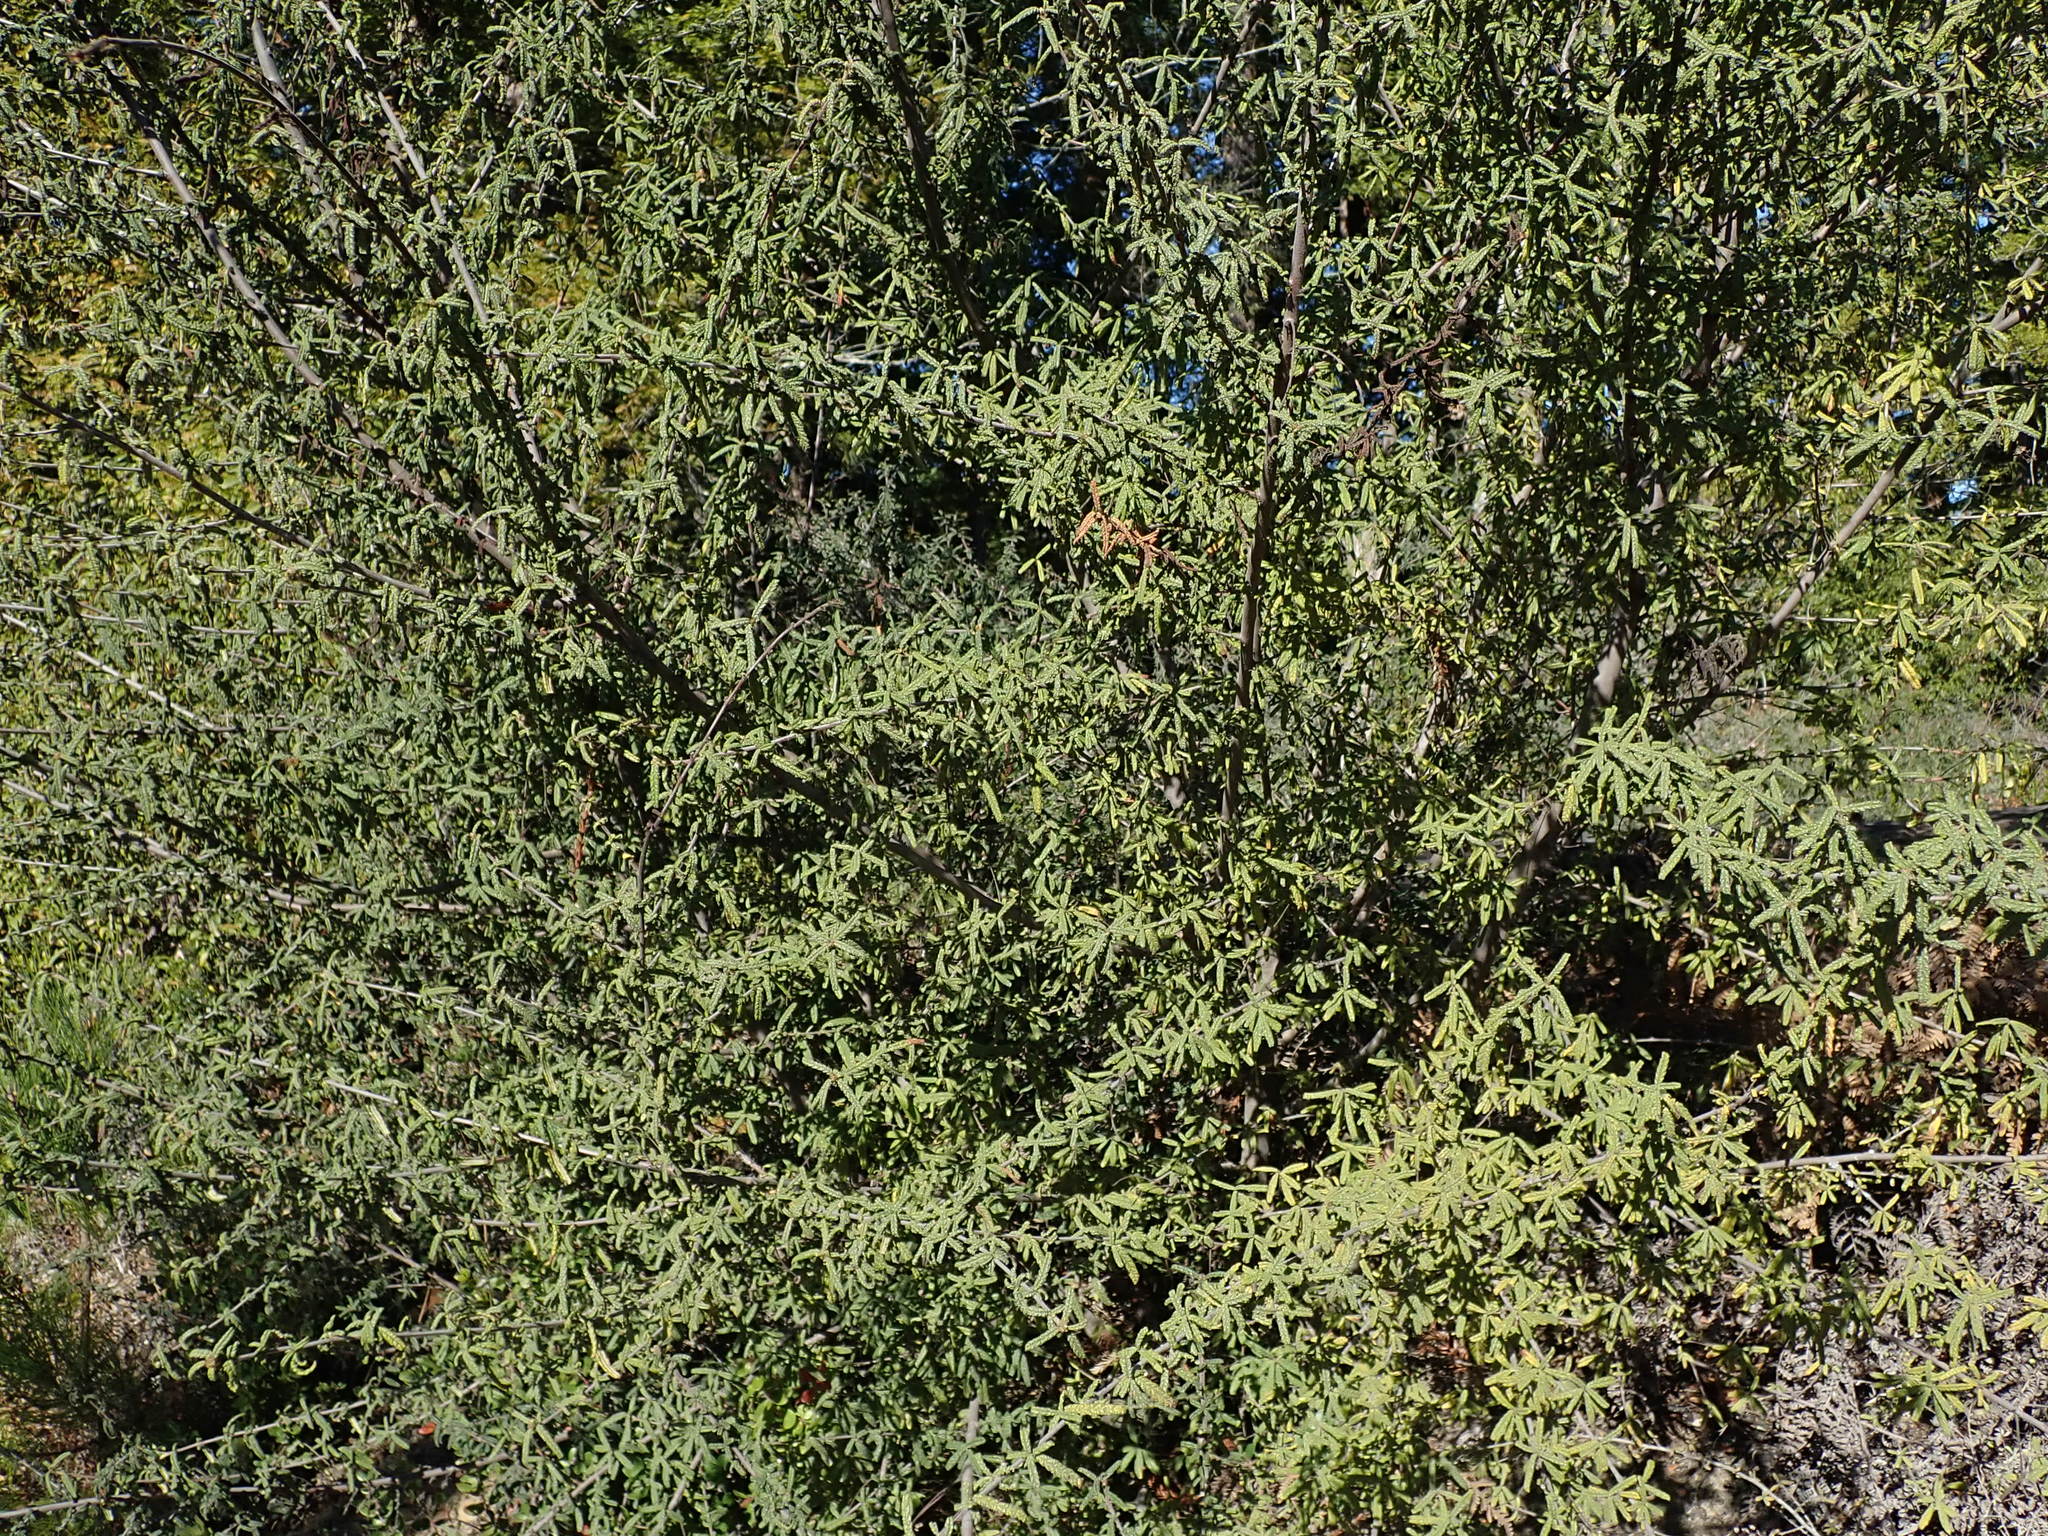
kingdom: Plantae
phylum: Tracheophyta
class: Magnoliopsida
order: Rosales
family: Rhamnaceae
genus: Ceanothus
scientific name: Ceanothus papillosus
